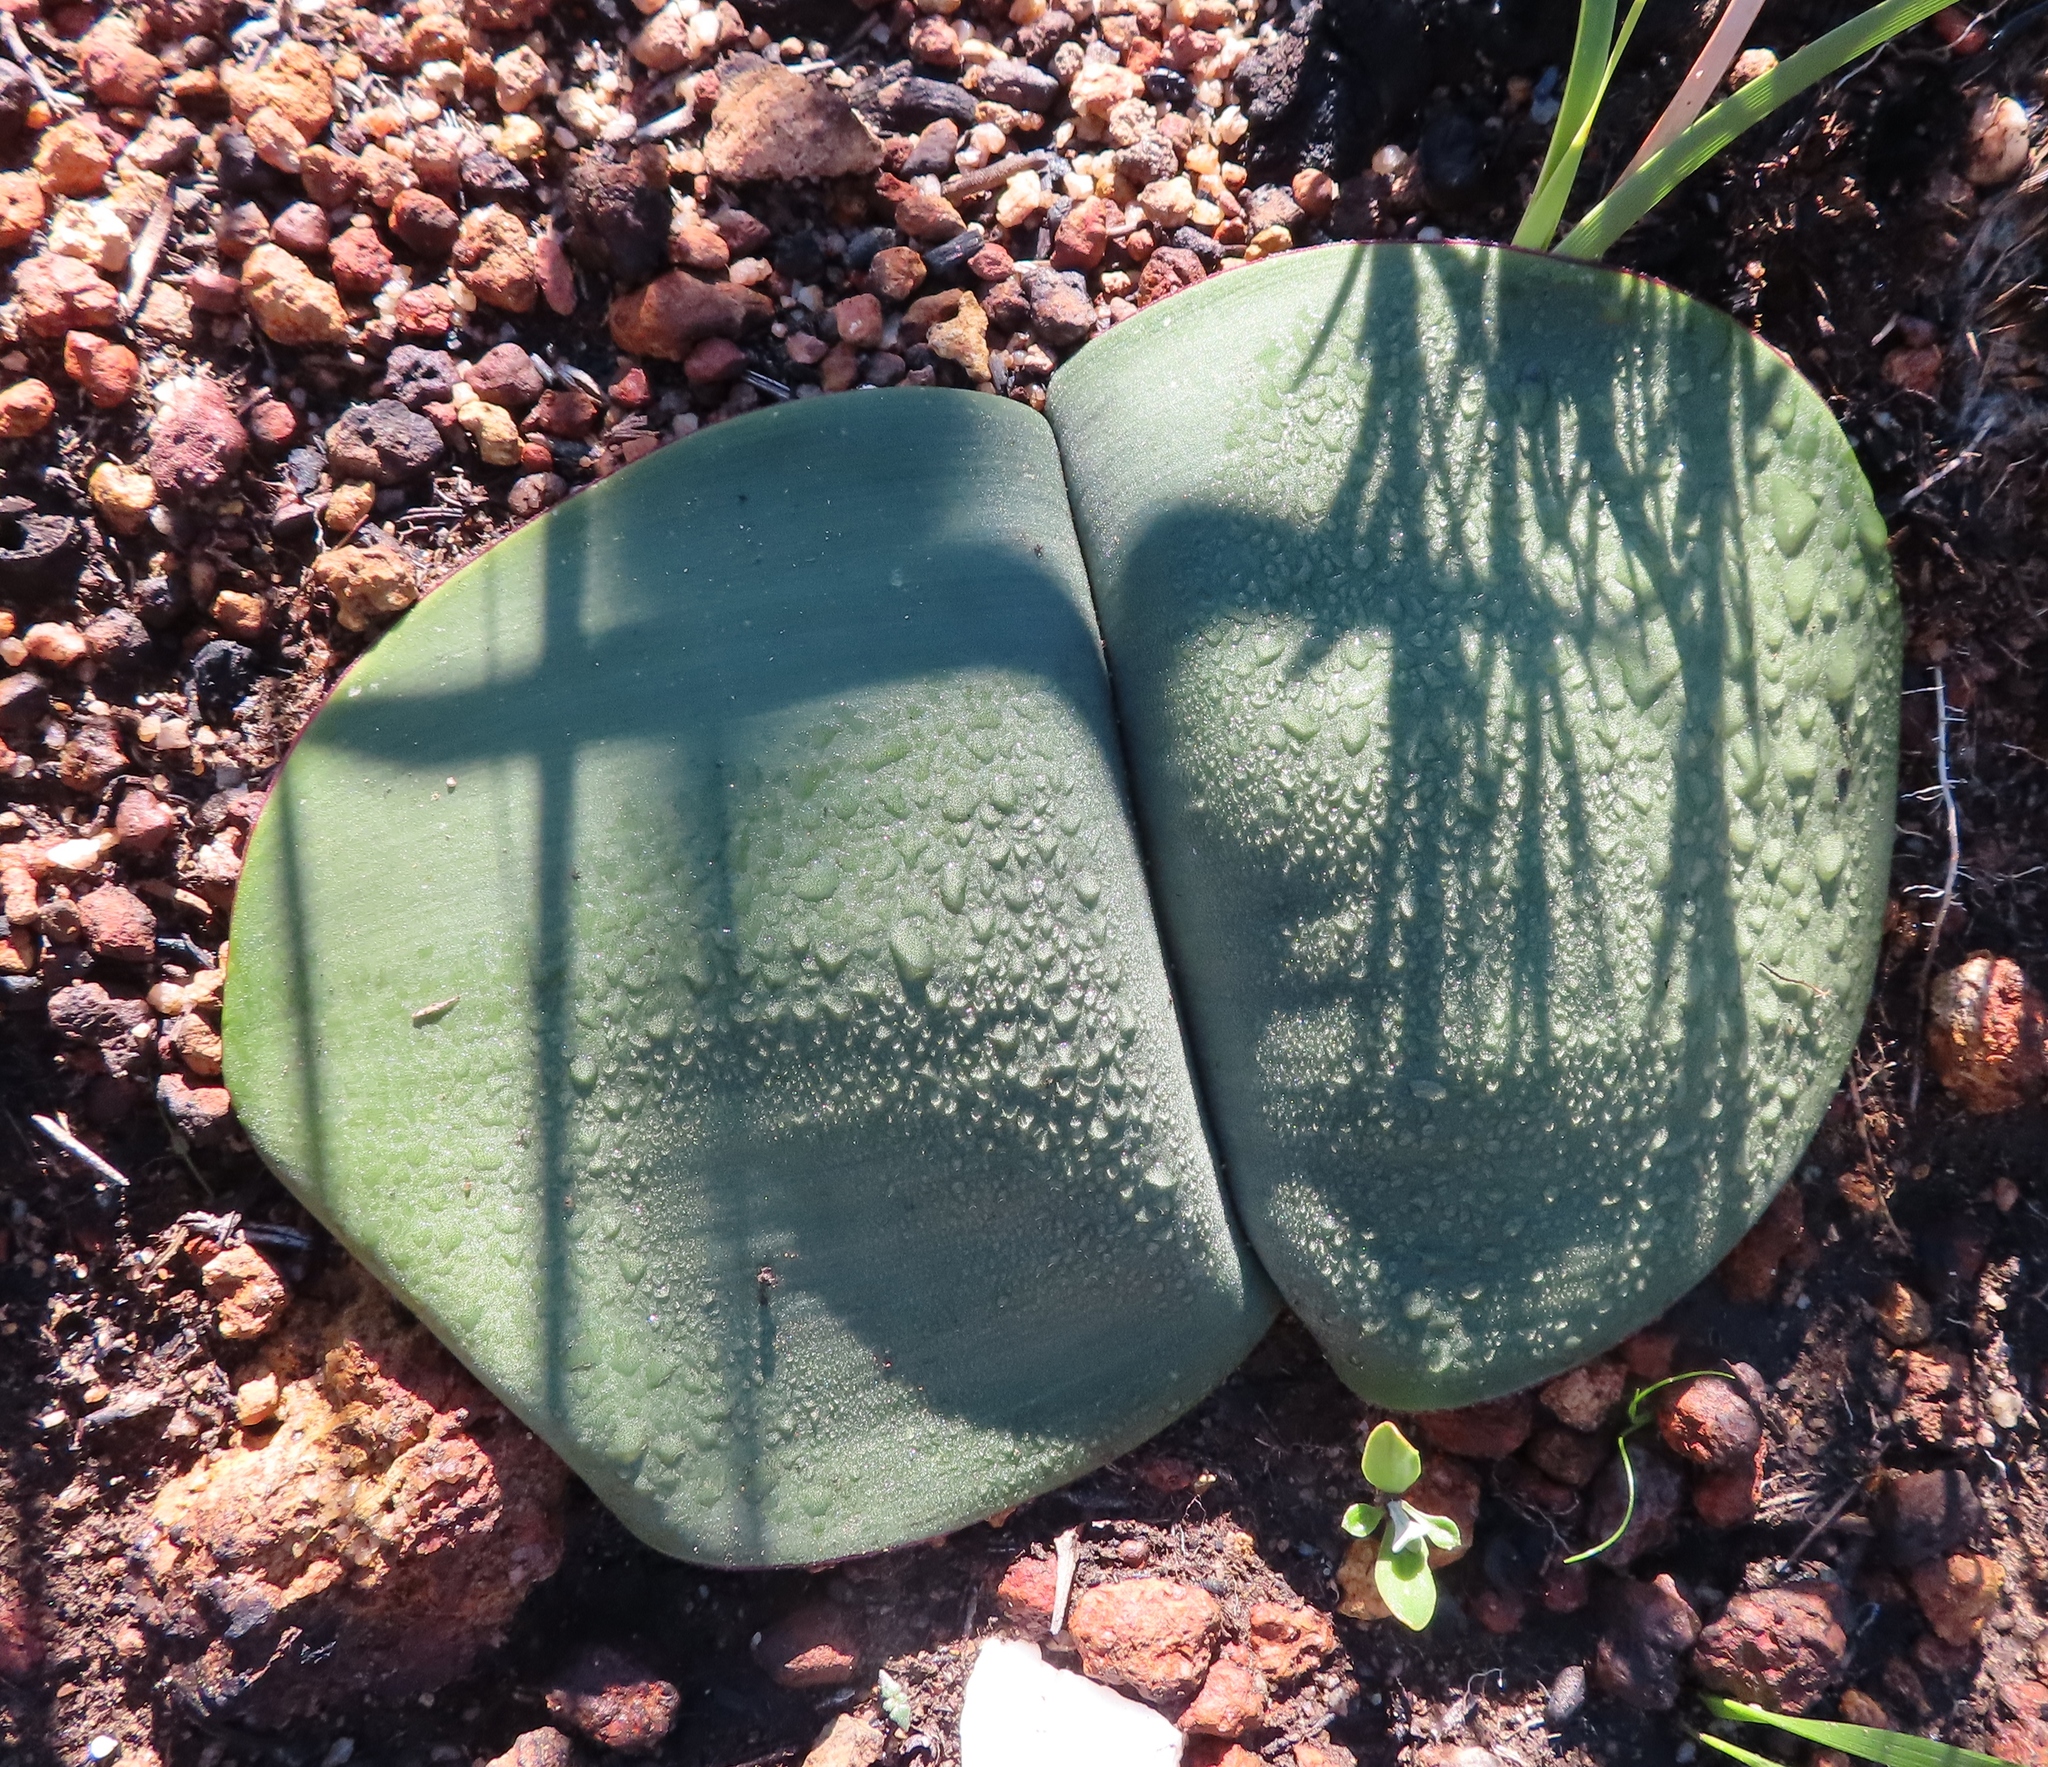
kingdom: Plantae
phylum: Tracheophyta
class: Liliopsida
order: Asparagales
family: Amaryllidaceae
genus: Haemanthus
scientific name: Haemanthus sanguineus
